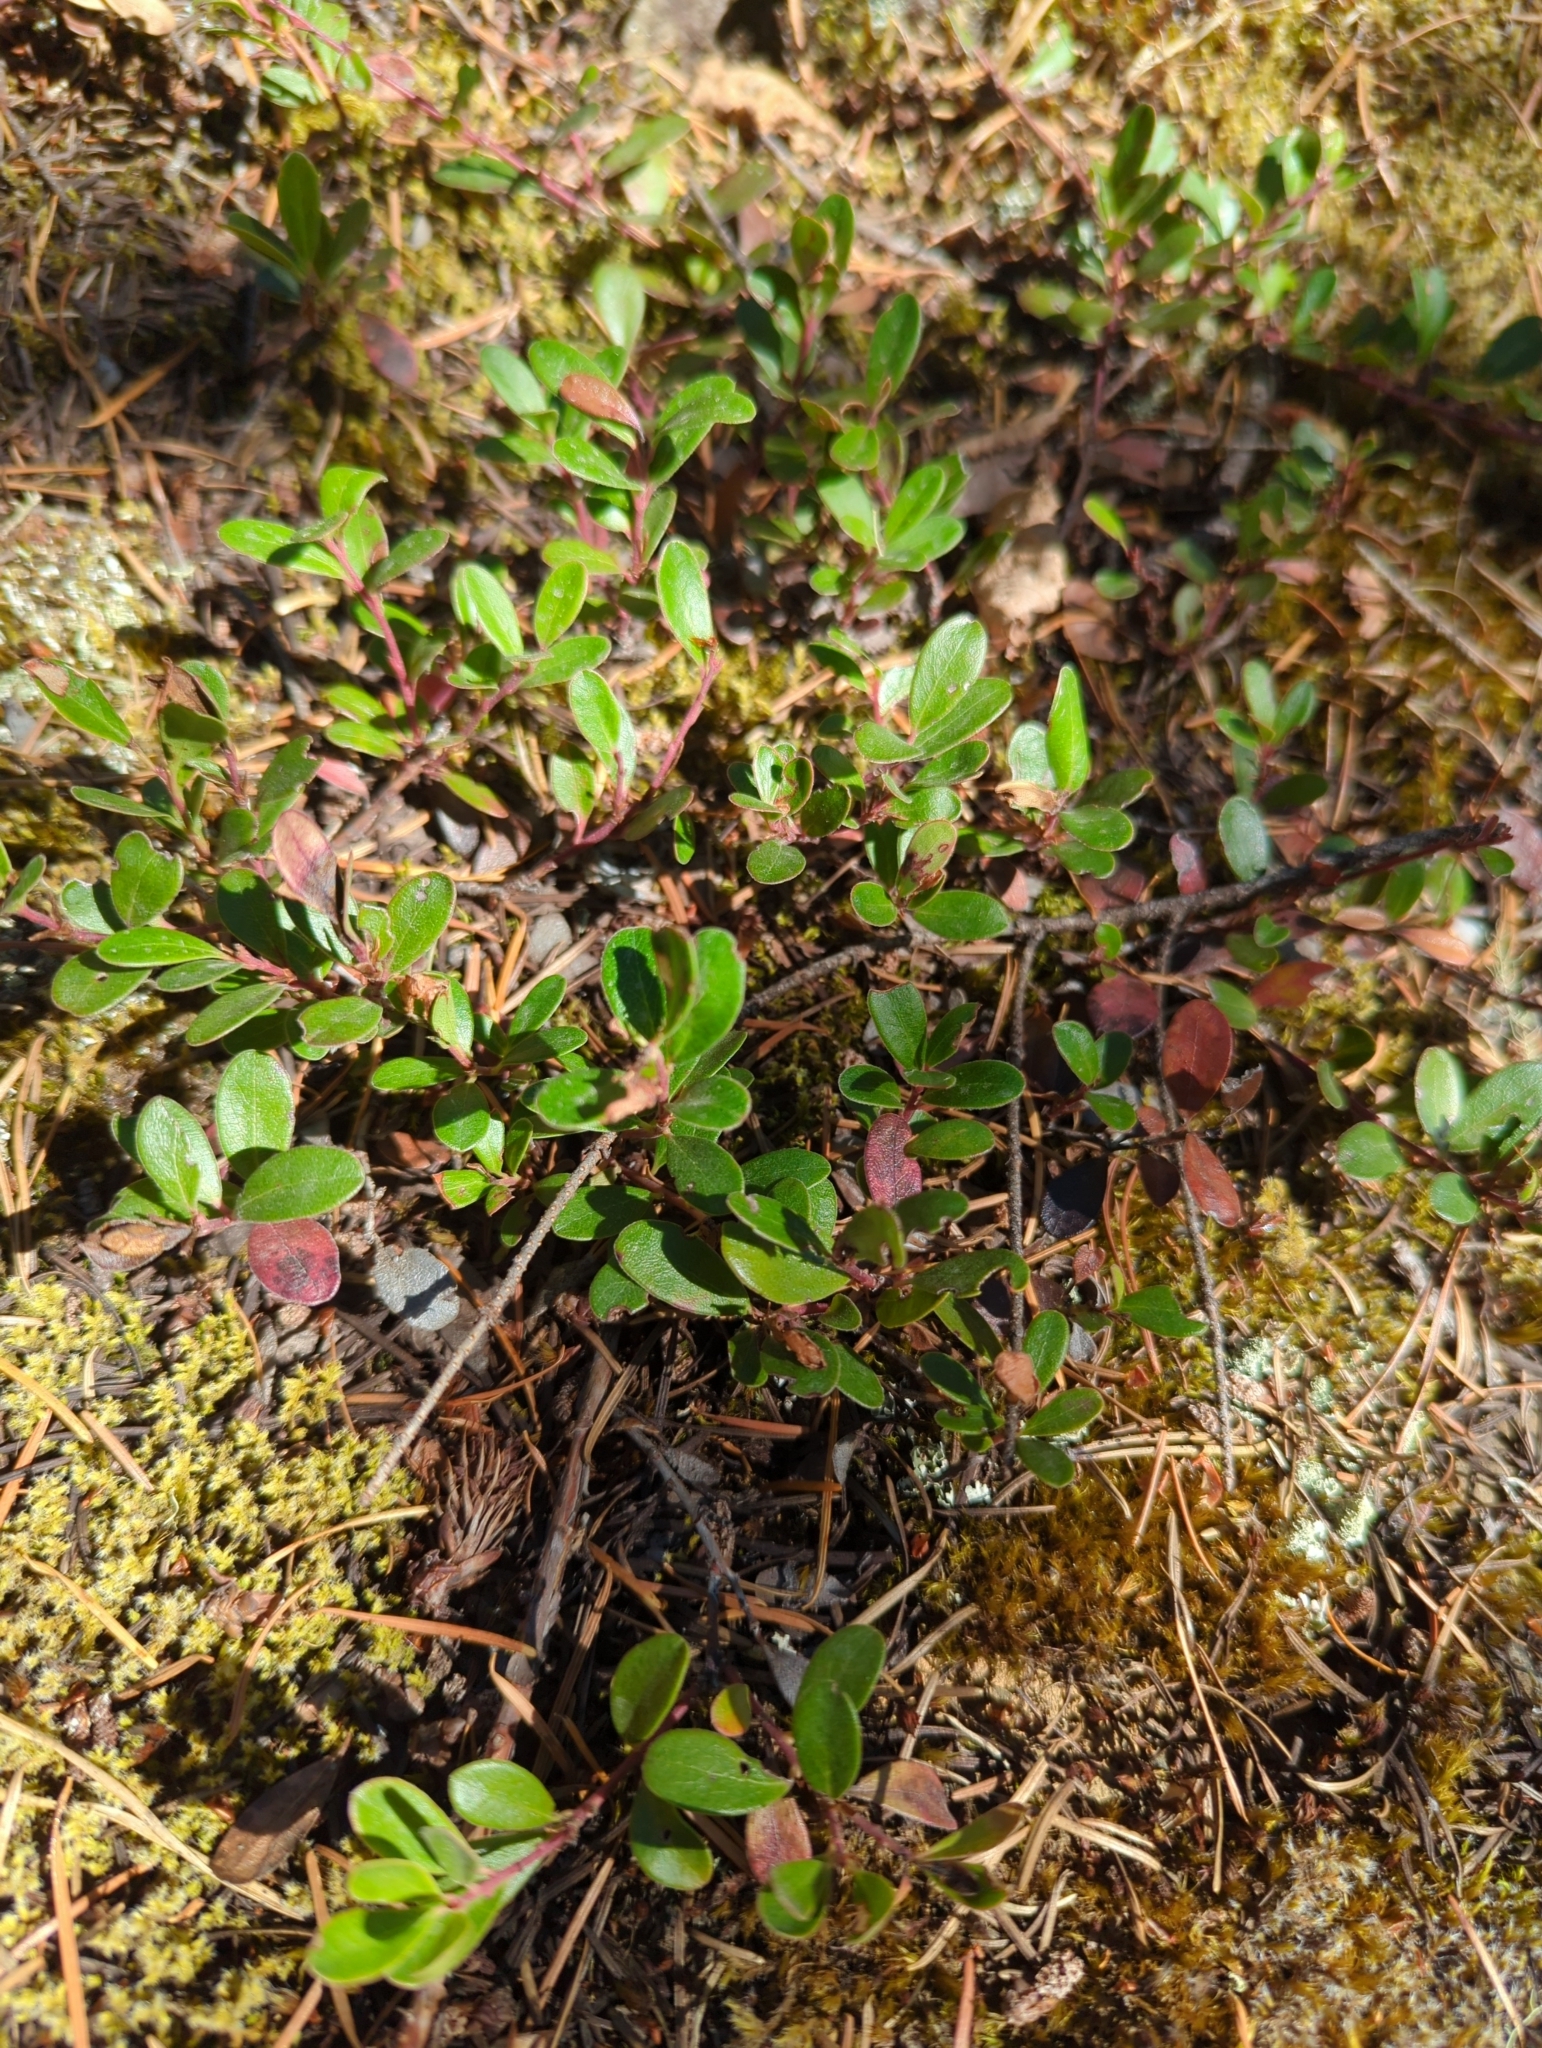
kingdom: Plantae
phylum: Tracheophyta
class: Magnoliopsida
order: Ericales
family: Ericaceae
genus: Arctostaphylos
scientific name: Arctostaphylos uva-ursi
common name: Bearberry
